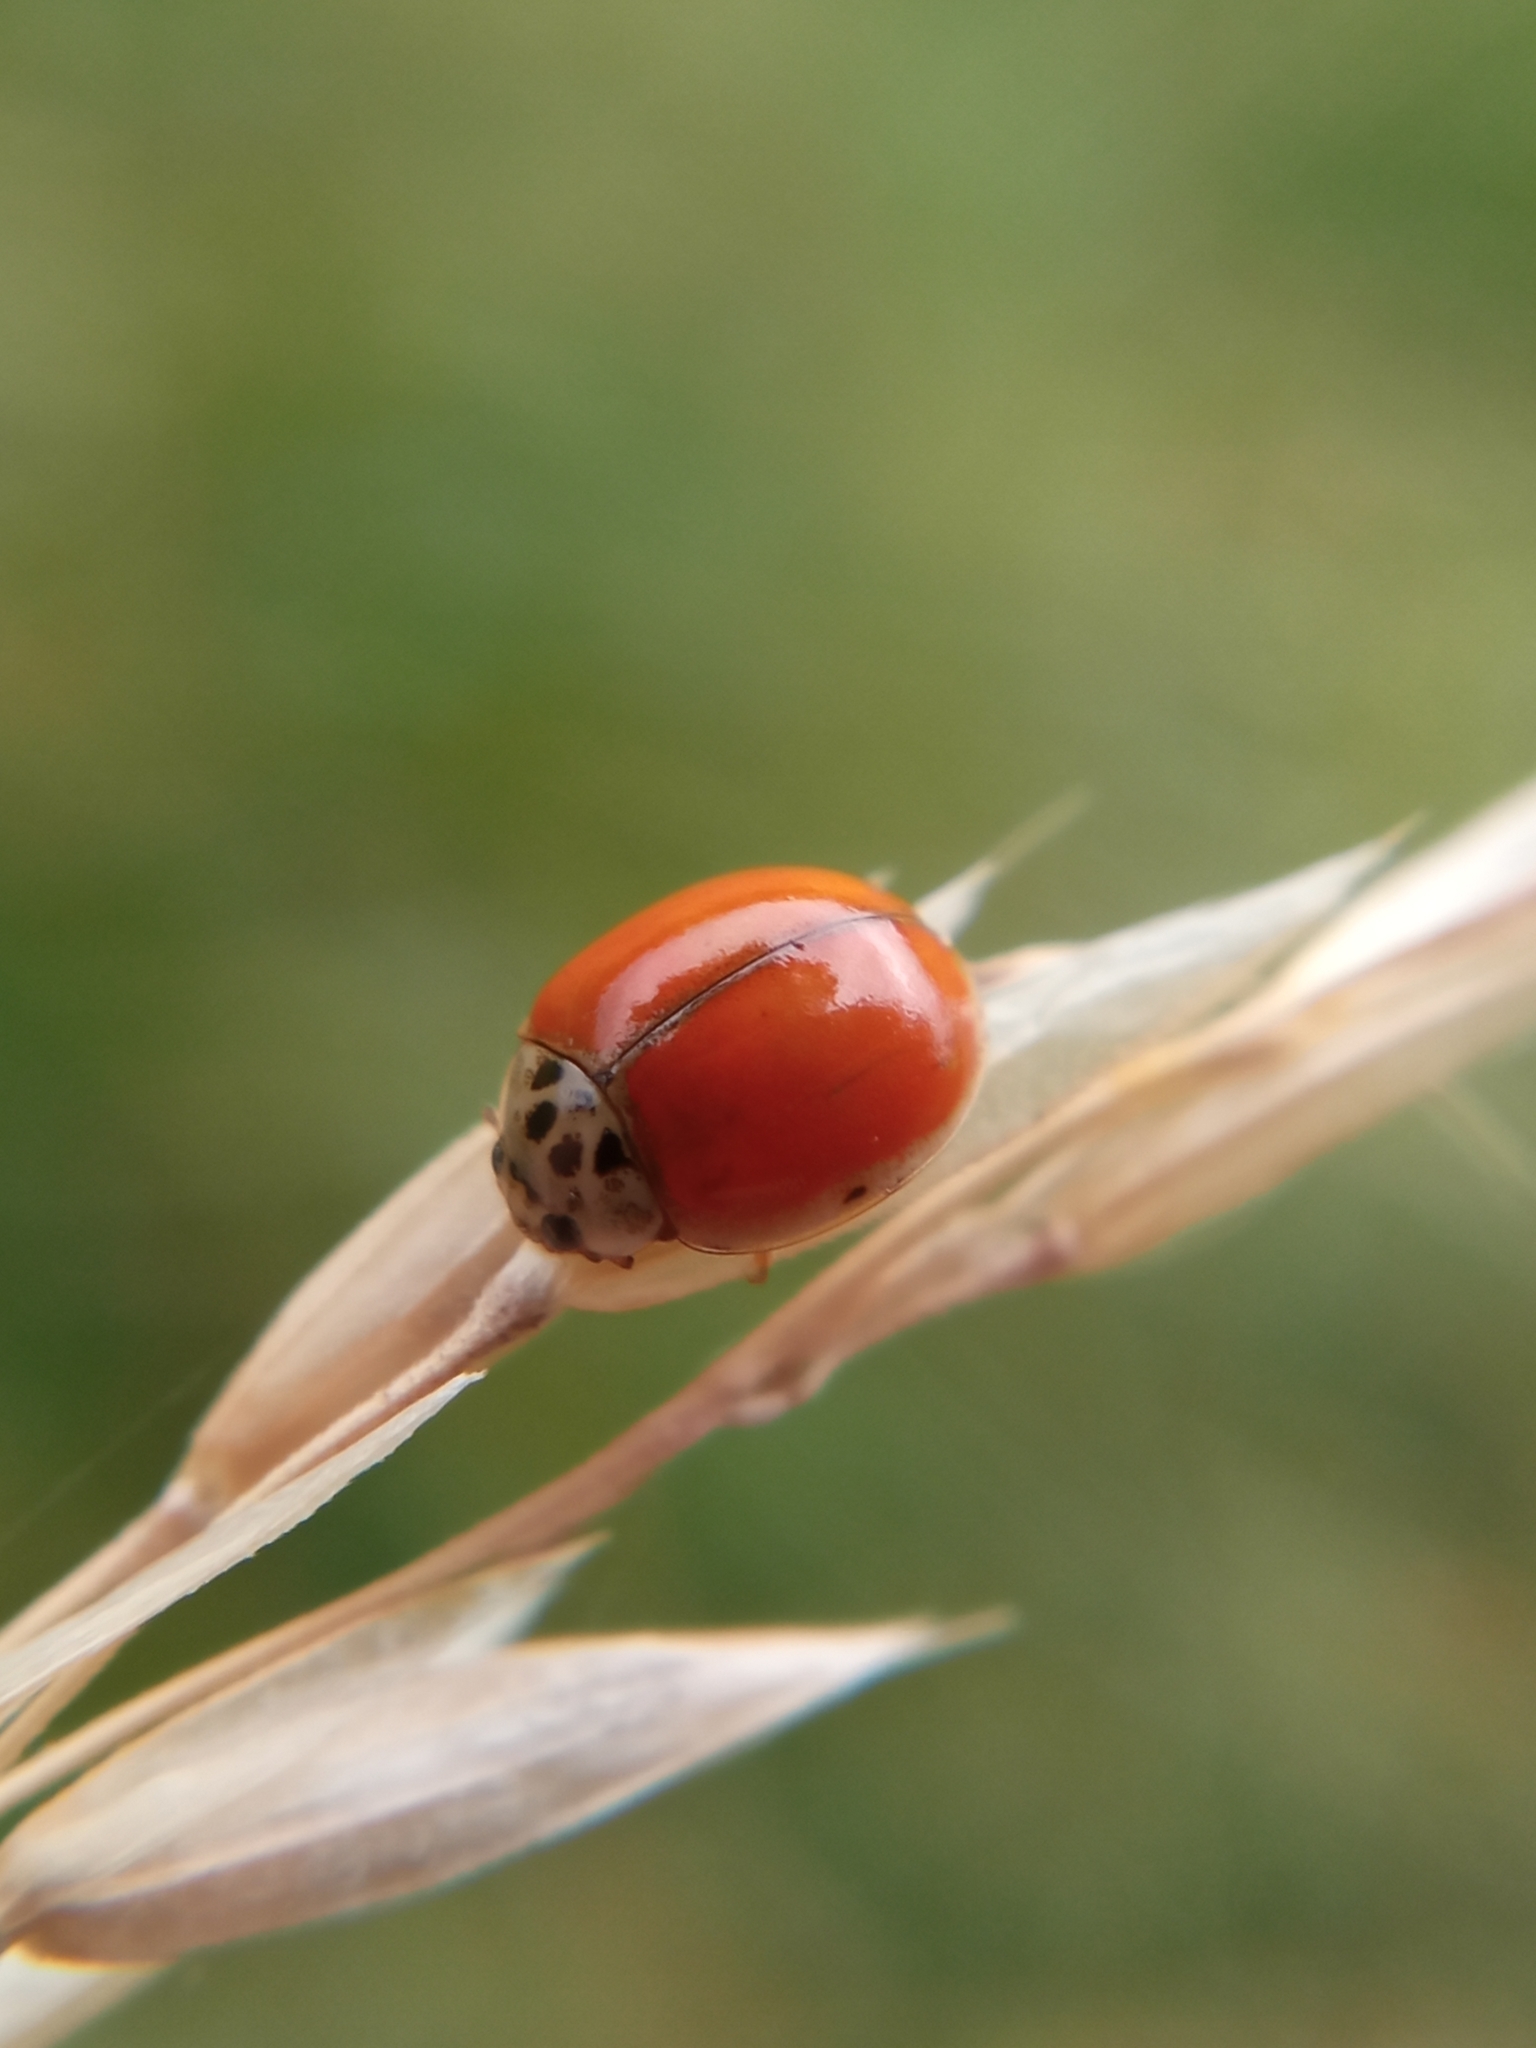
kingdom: Animalia
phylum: Arthropoda
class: Insecta
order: Coleoptera
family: Coccinellidae
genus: Adalia
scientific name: Adalia decempunctata
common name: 10-spot ladybird
